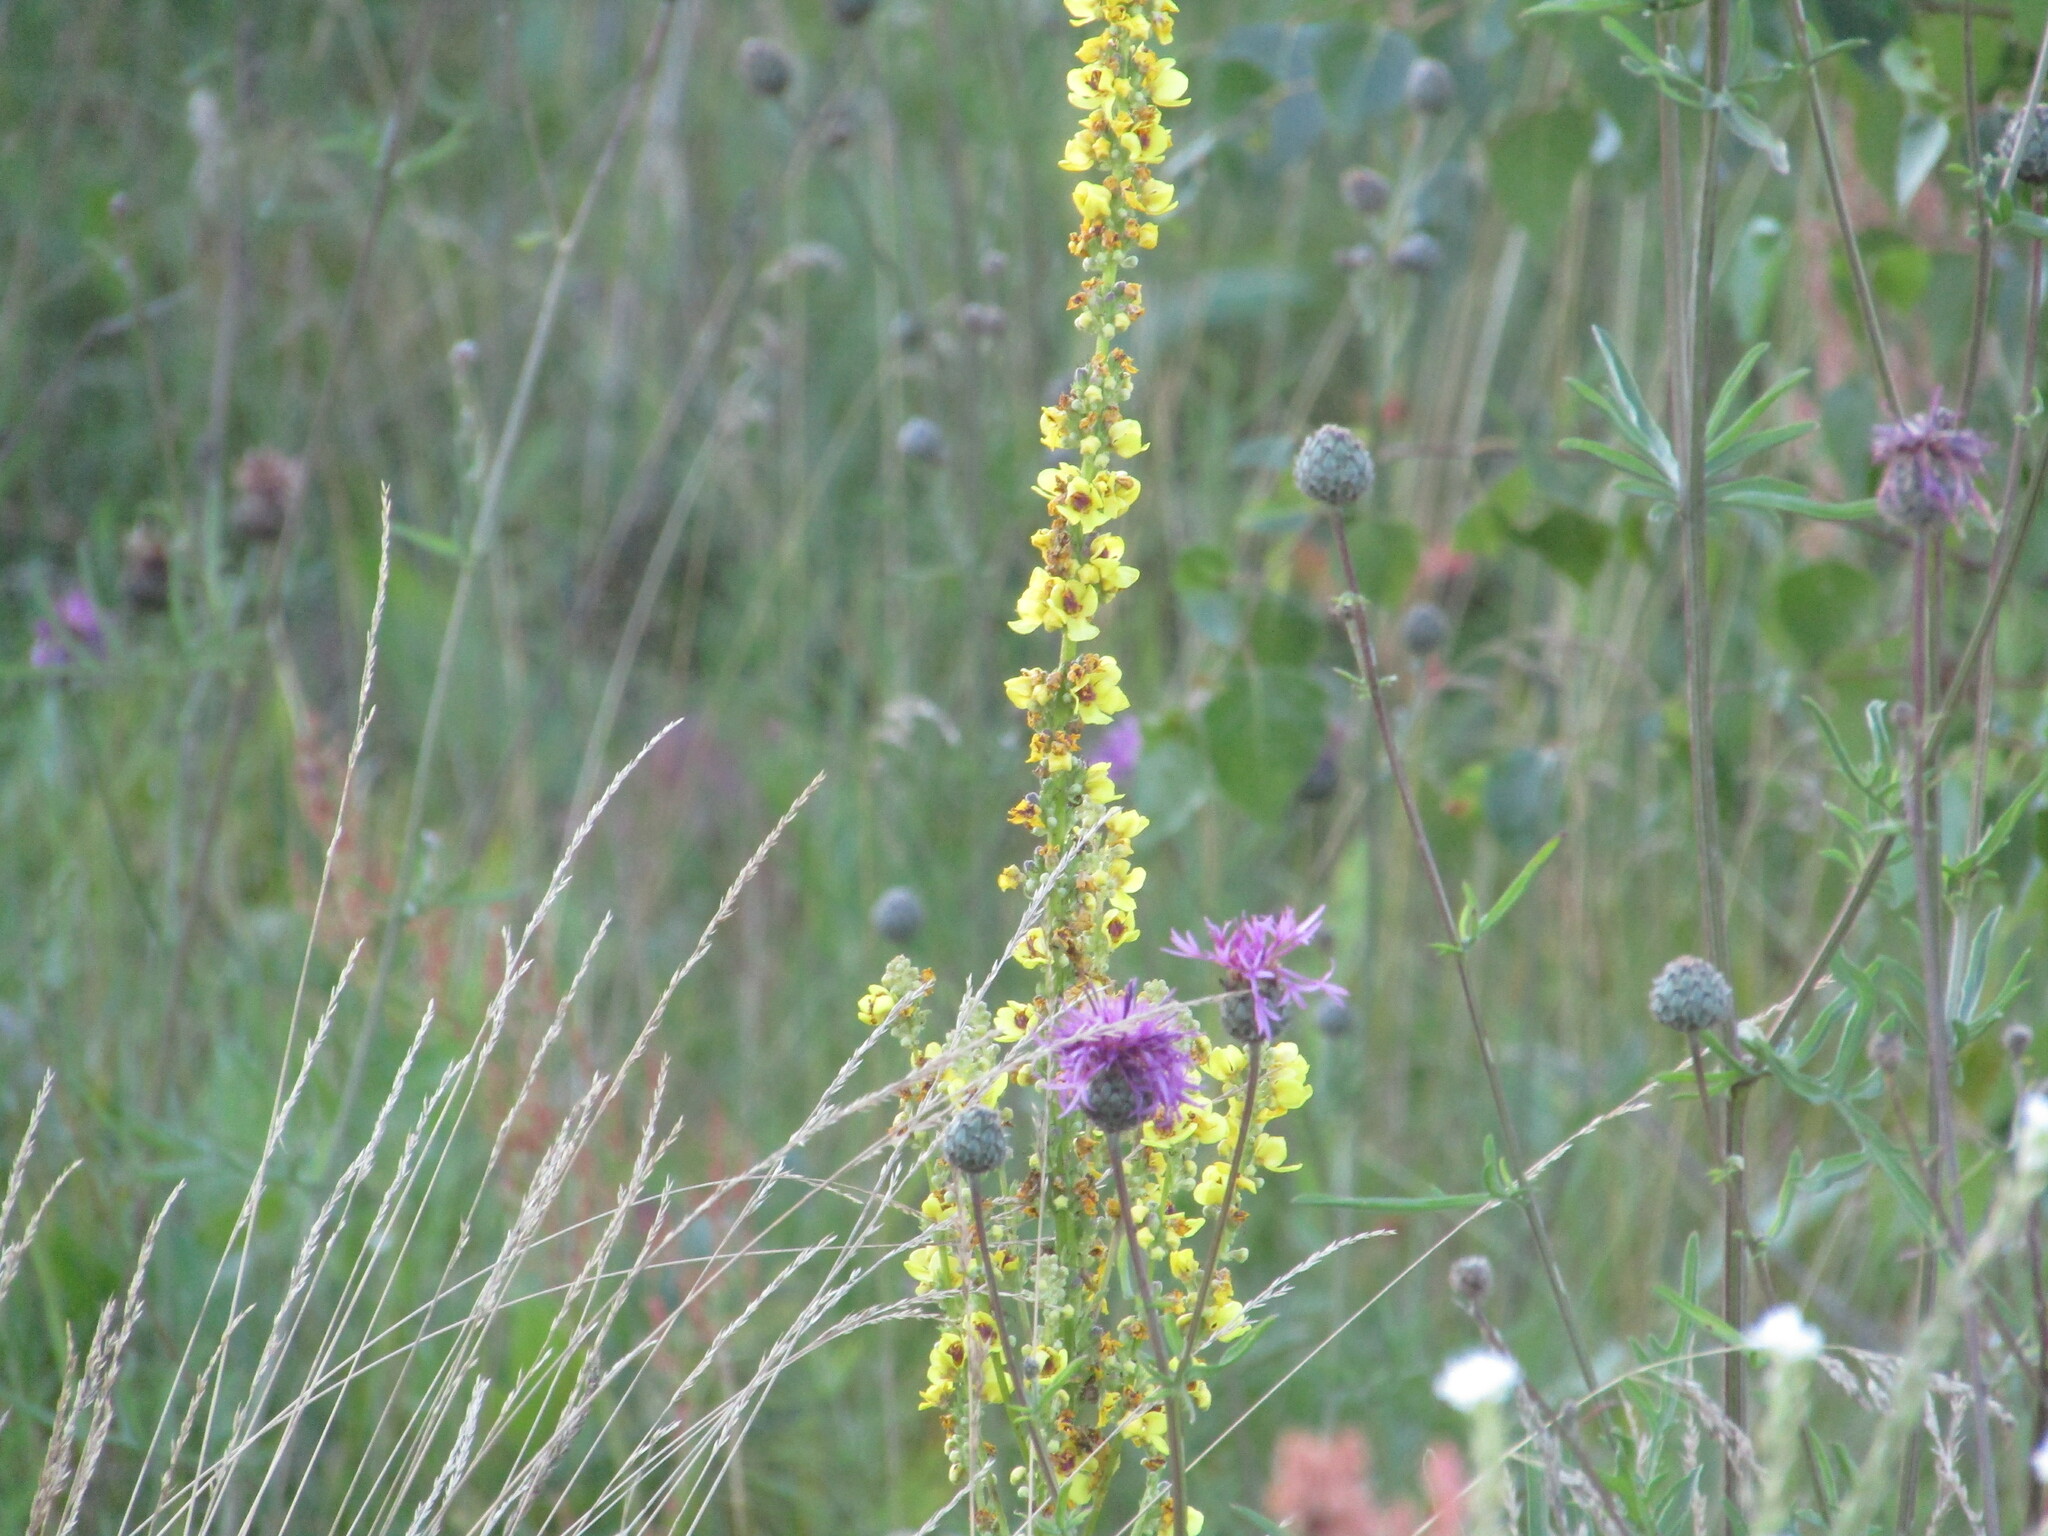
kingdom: Plantae
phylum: Tracheophyta
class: Magnoliopsida
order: Lamiales
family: Scrophulariaceae
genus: Verbascum
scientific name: Verbascum nigrum
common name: Dark mullein
